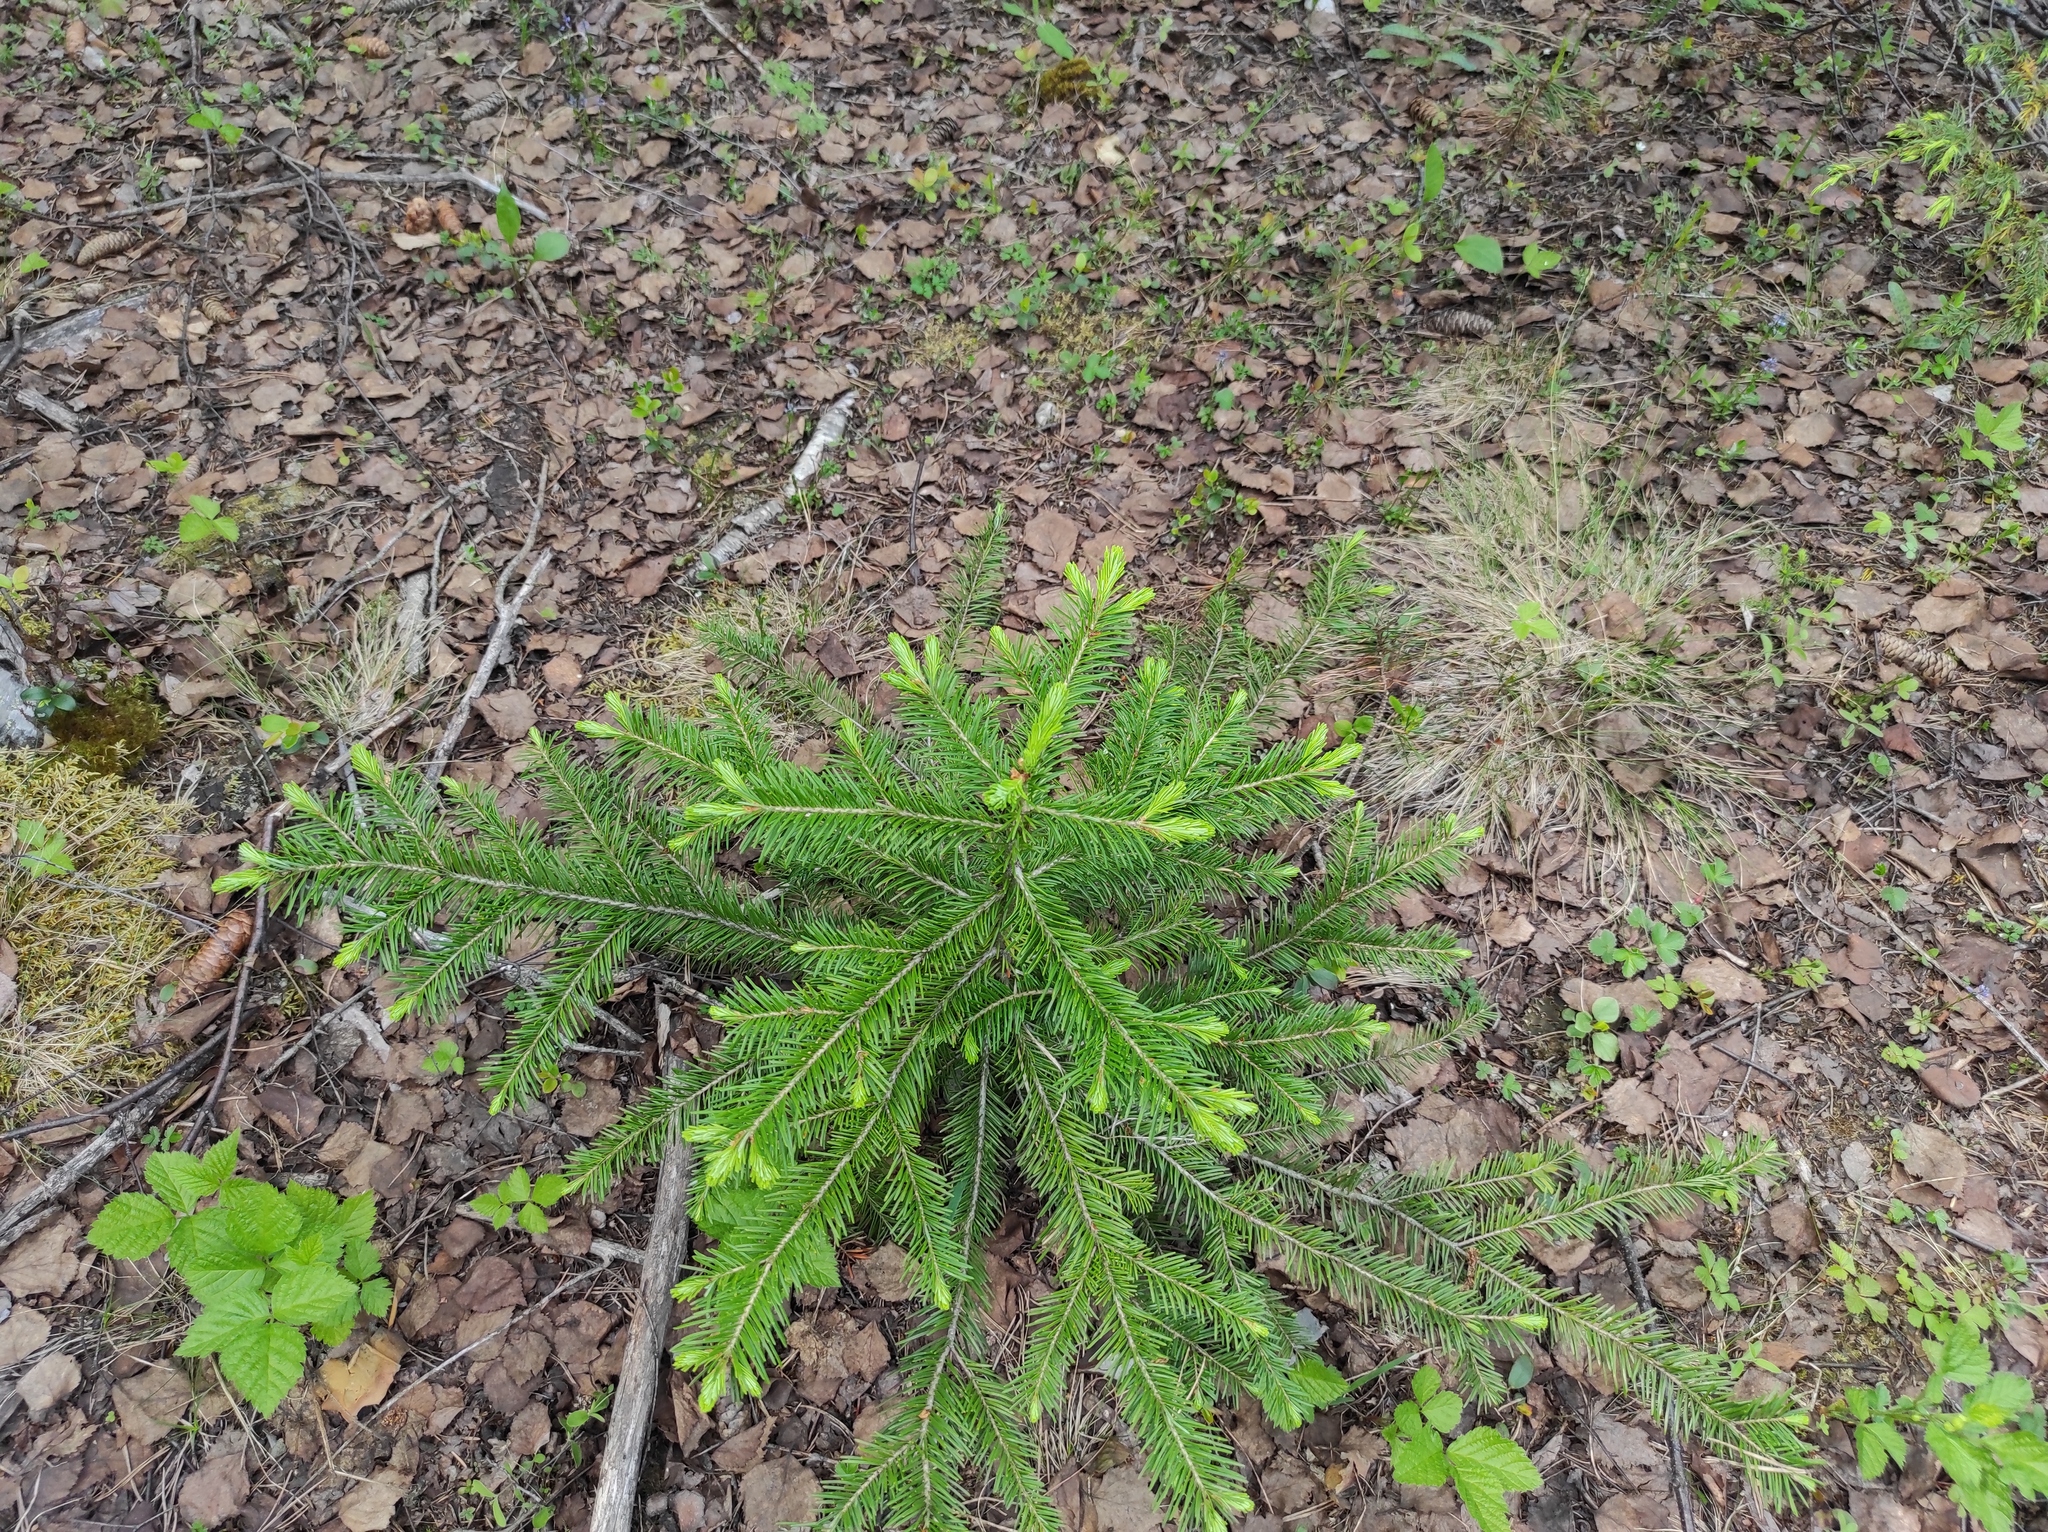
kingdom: Plantae
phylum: Tracheophyta
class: Magnoliopsida
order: Rosales
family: Rosaceae
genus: Rubus
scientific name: Rubus saxatilis
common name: Stone bramble
